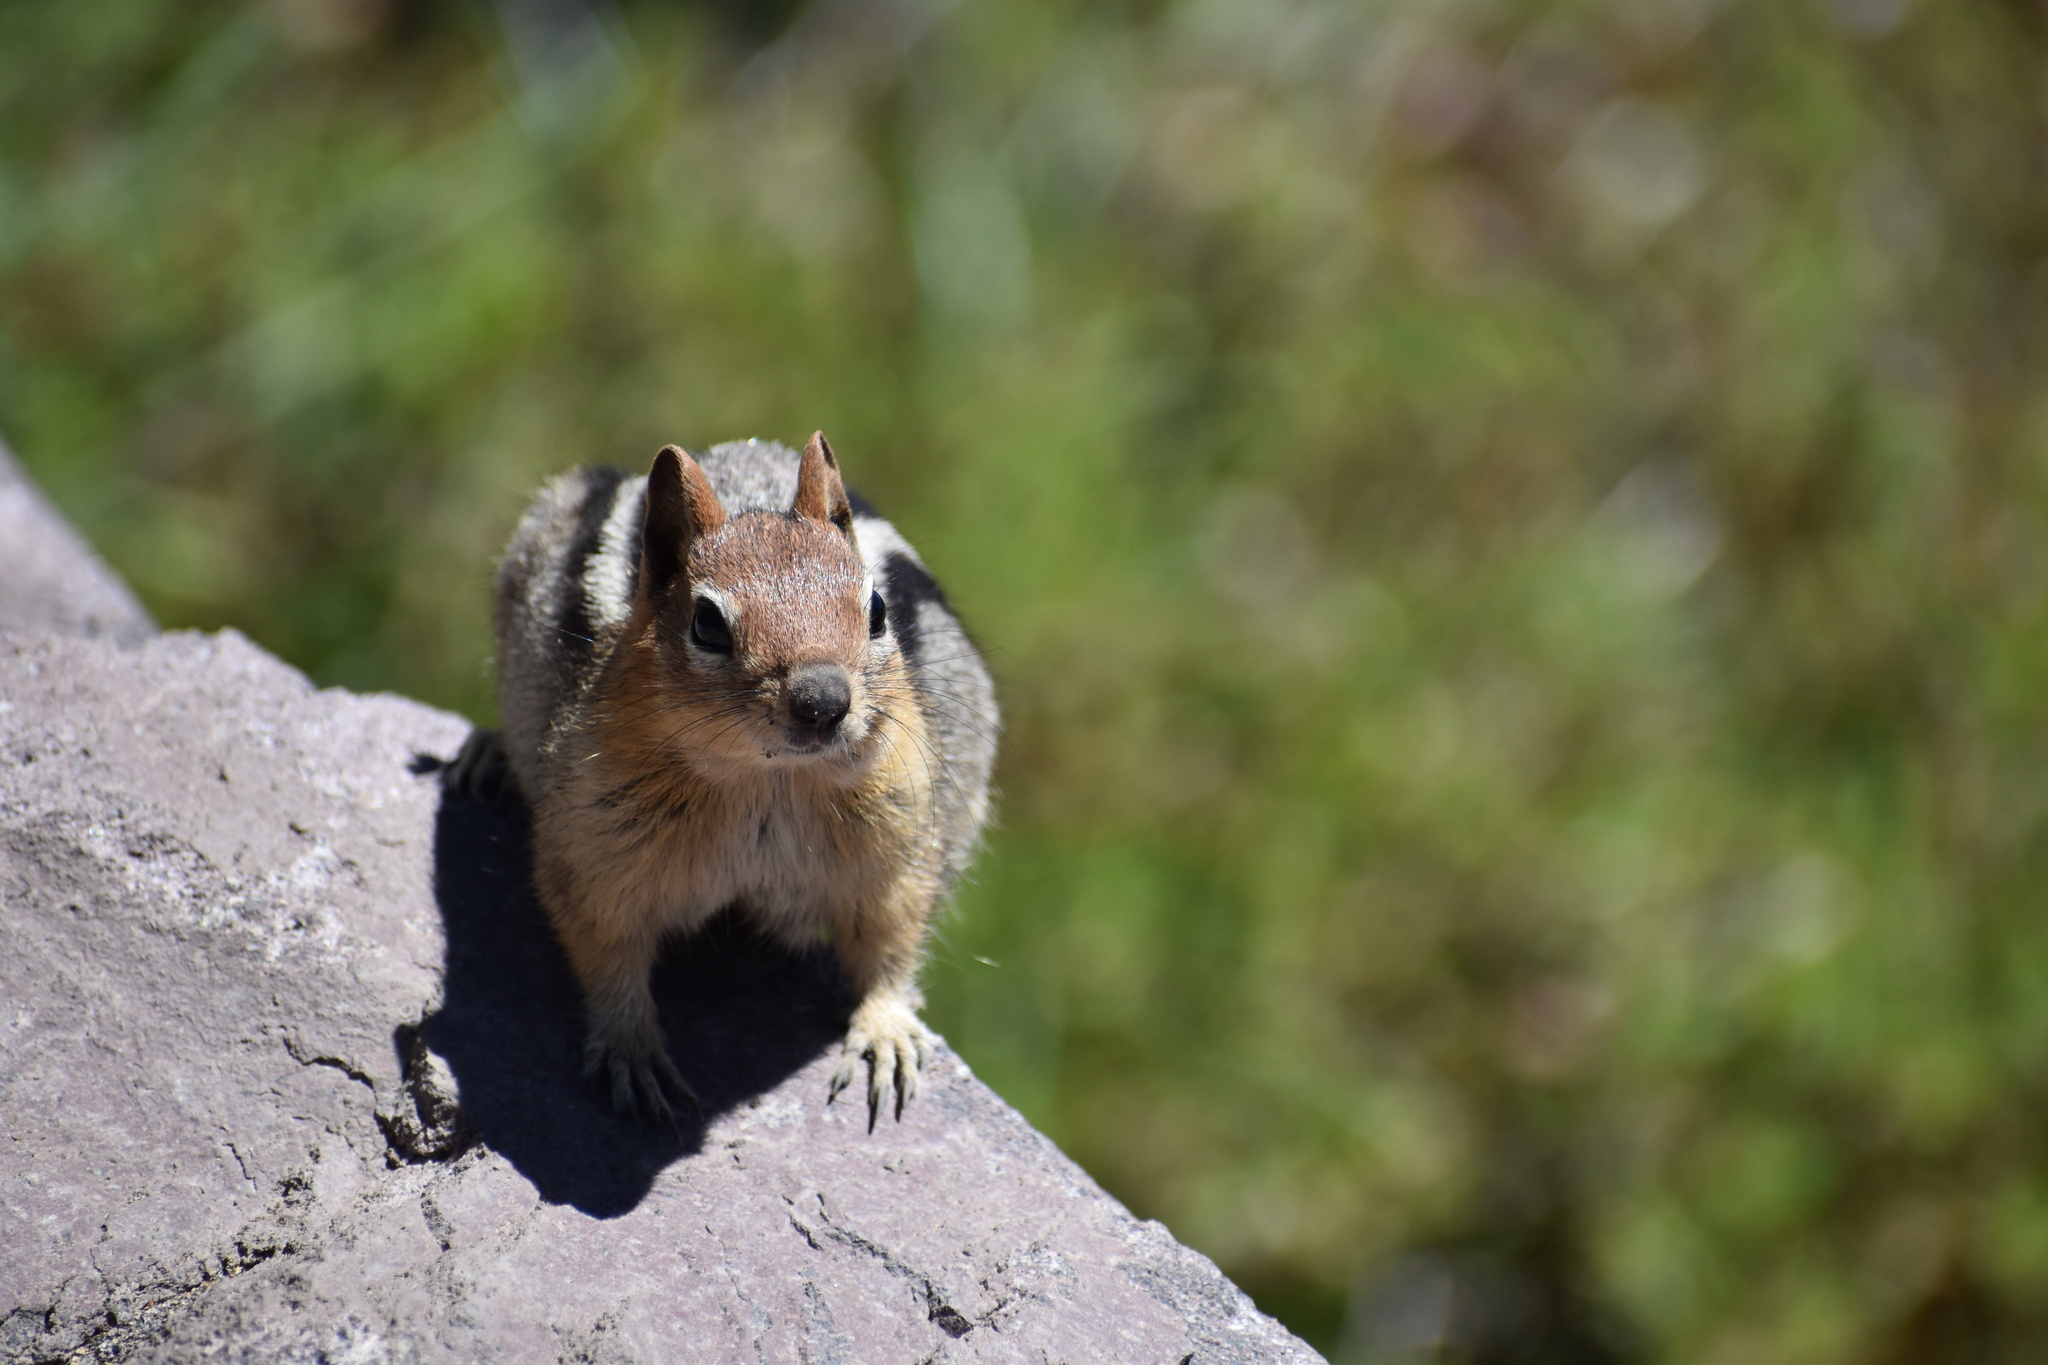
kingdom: Animalia
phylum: Chordata
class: Mammalia
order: Rodentia
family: Sciuridae
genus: Callospermophilus
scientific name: Callospermophilus lateralis
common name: Golden-mantled ground squirrel
